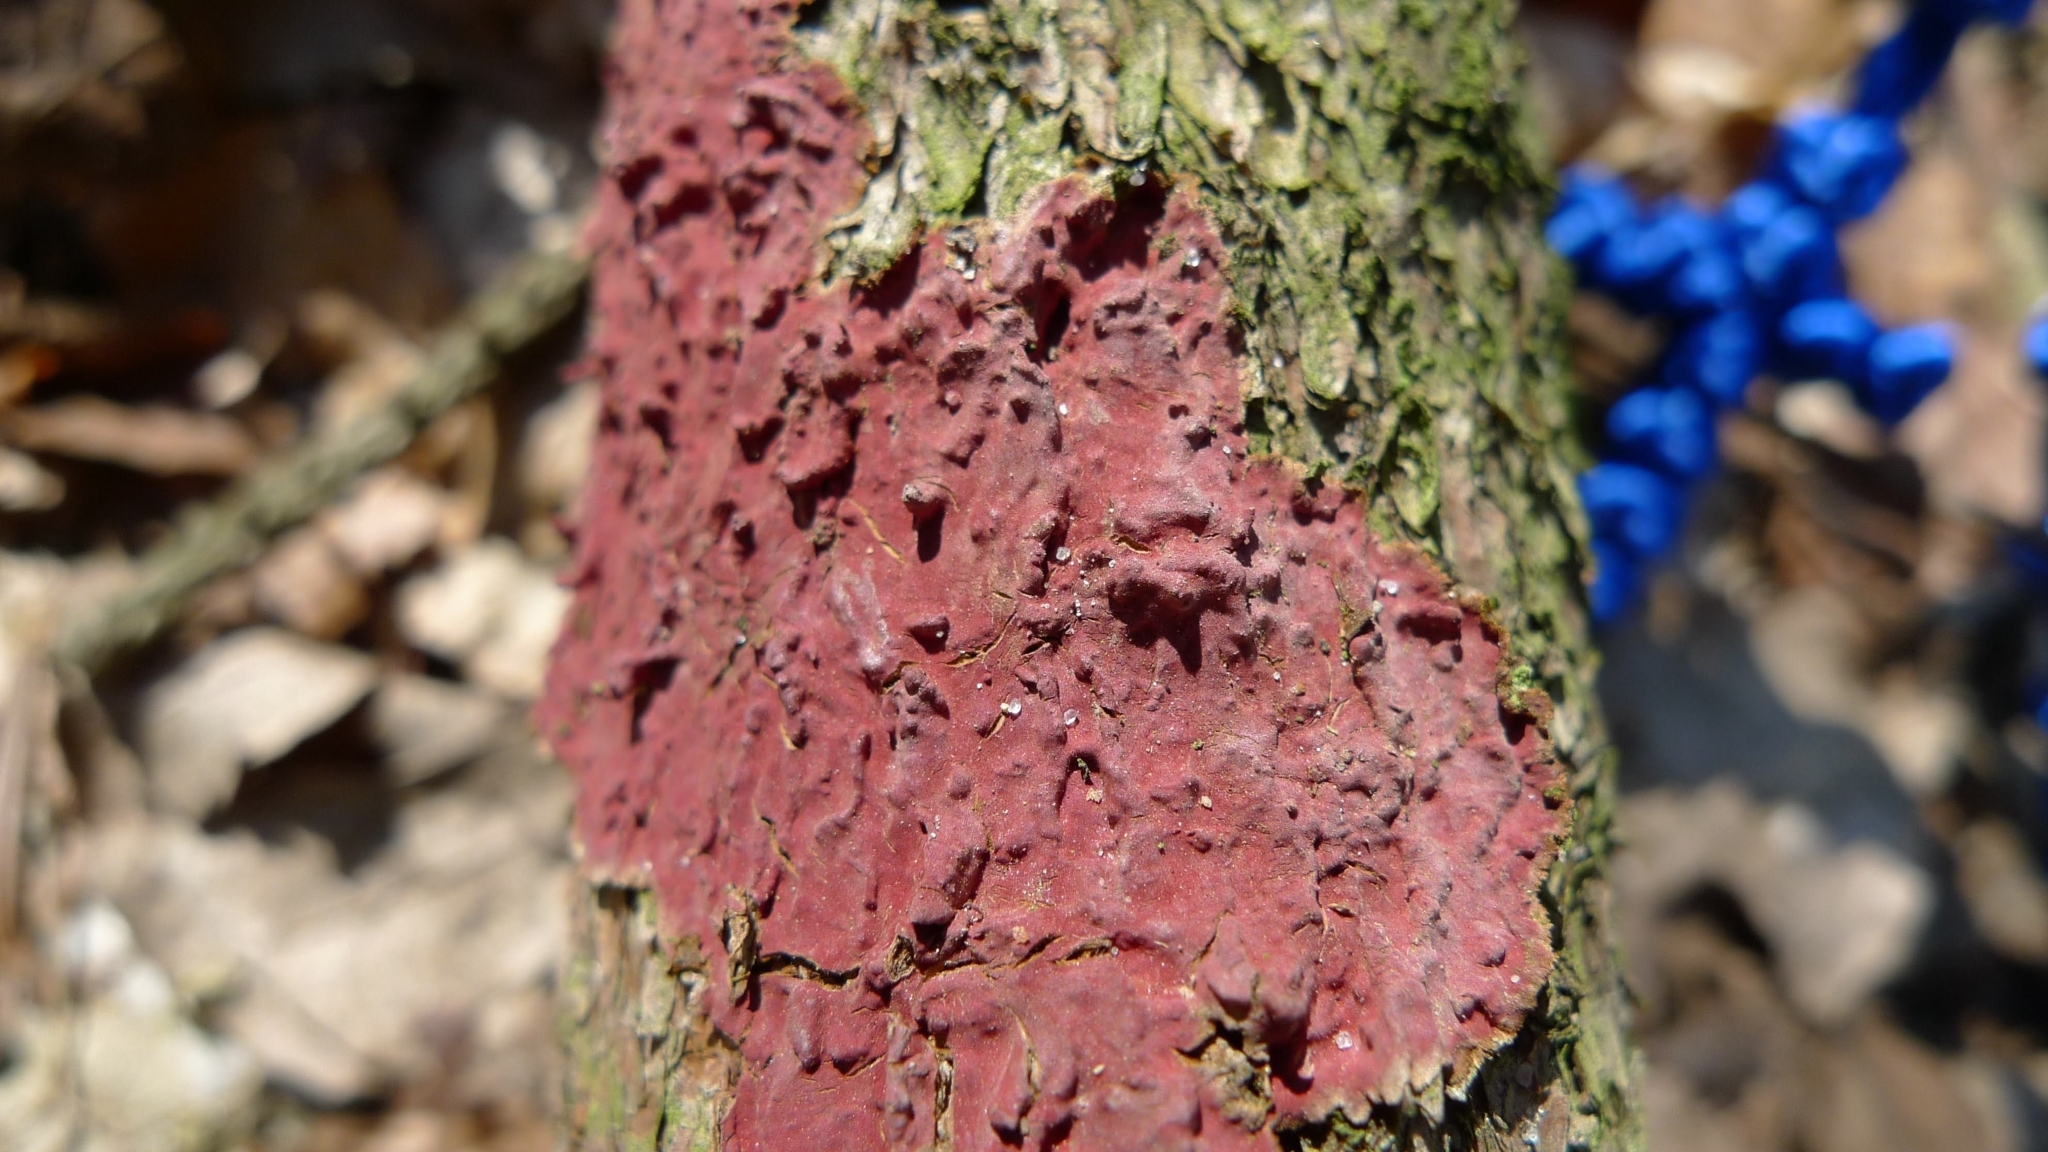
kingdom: Fungi
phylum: Basidiomycota
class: Agaricomycetes
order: Hymenochaetales
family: Hymenochaetaceae
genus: Hymenochaete
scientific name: Hymenochaete cruenta
